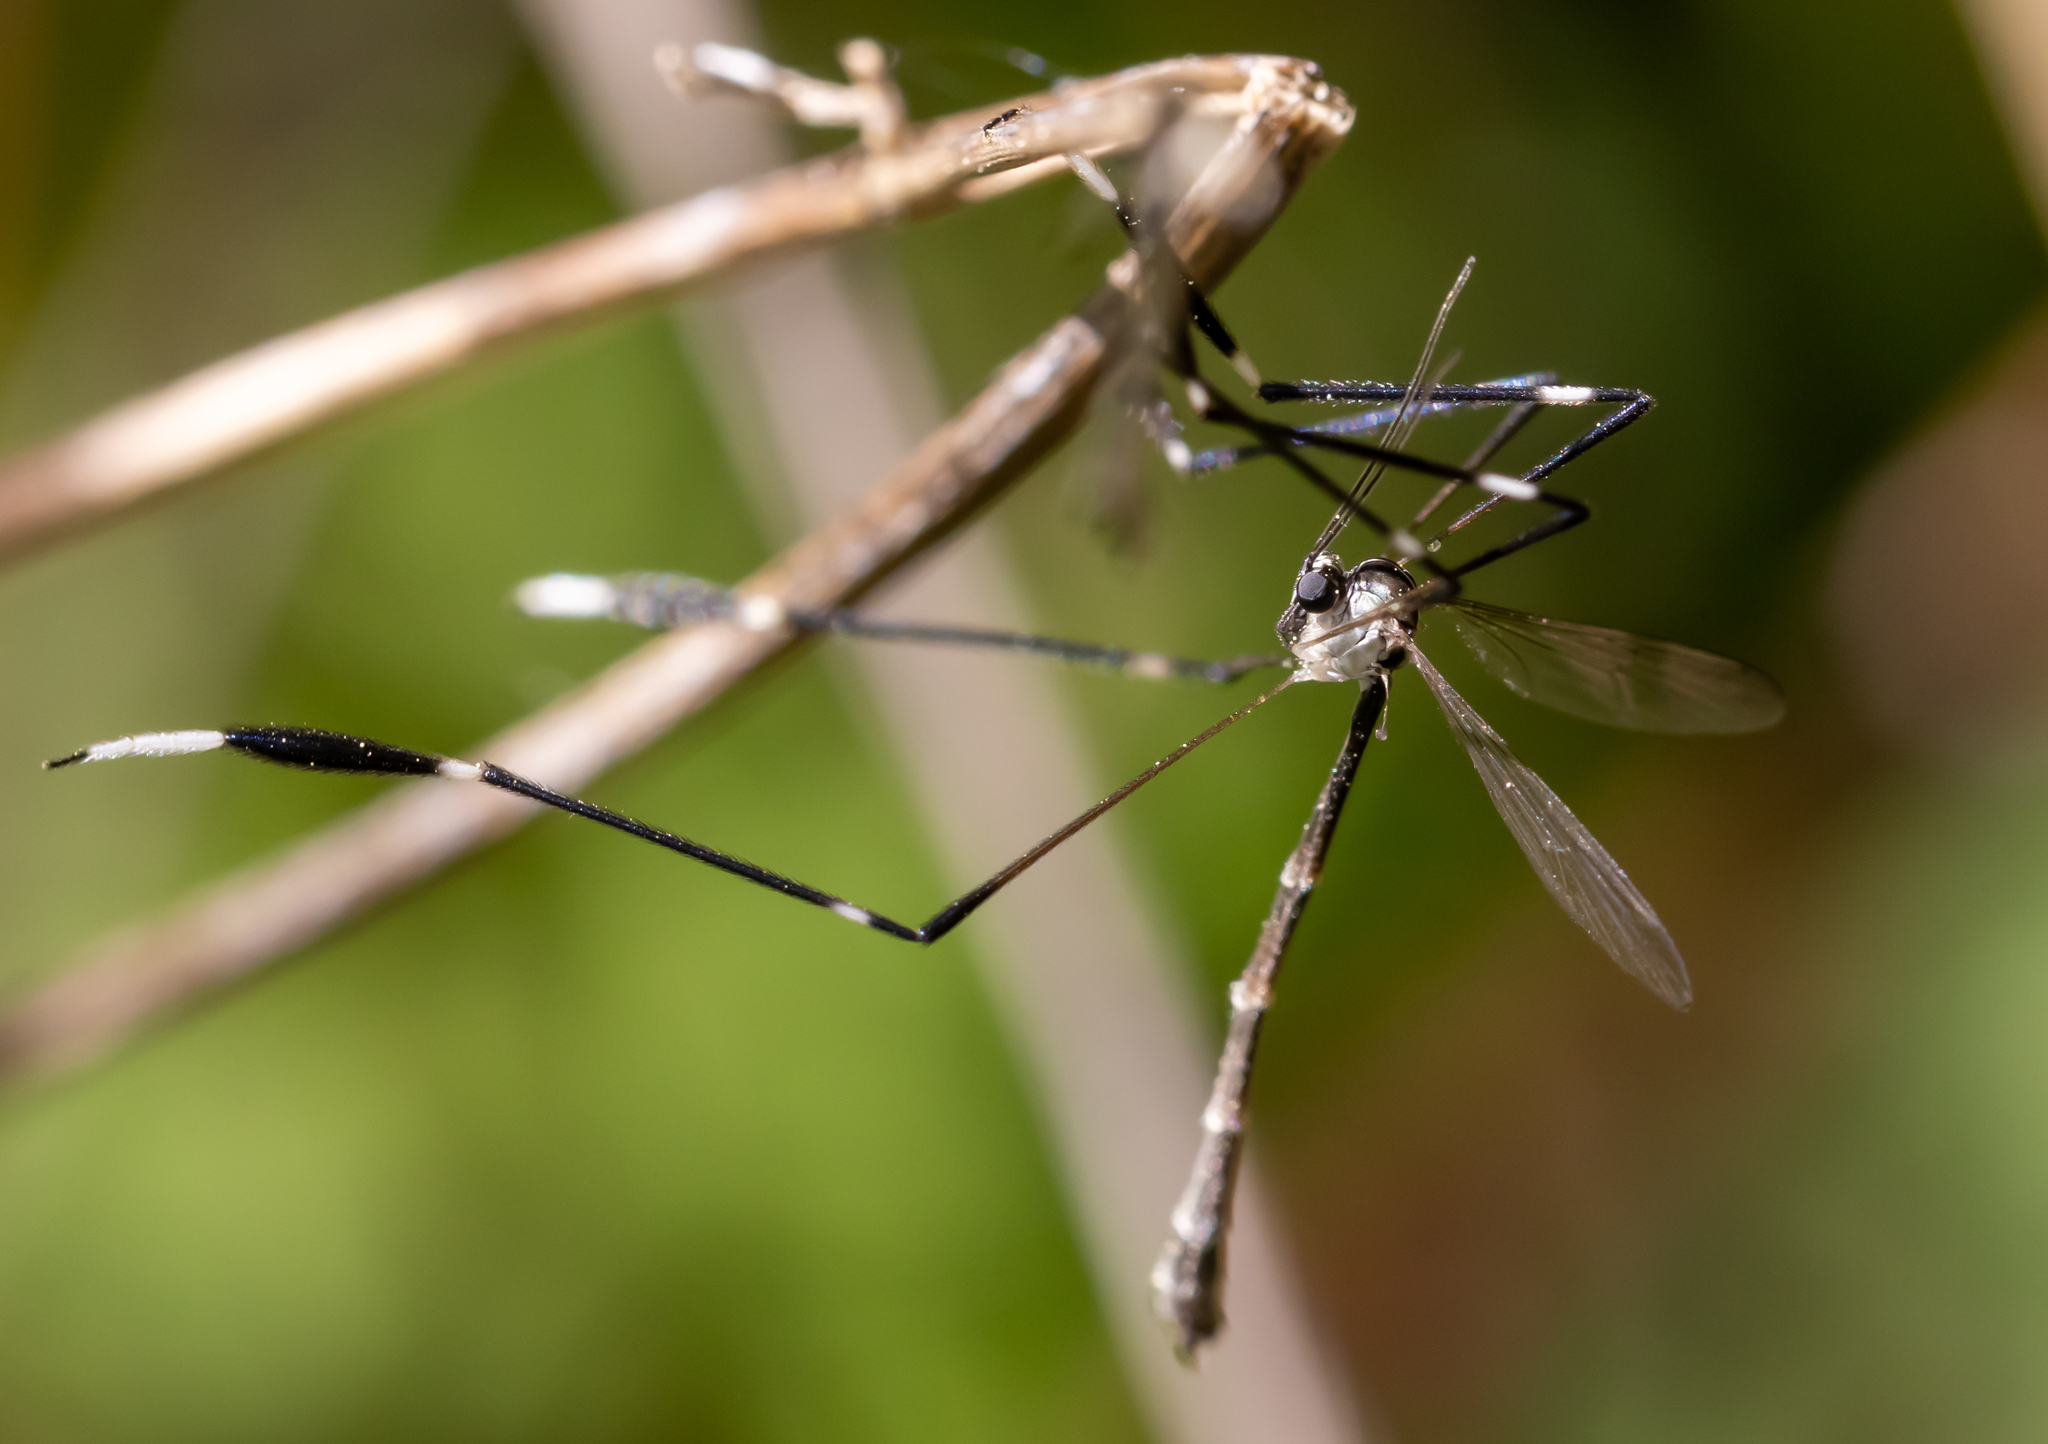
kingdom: Animalia
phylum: Arthropoda
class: Insecta
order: Diptera
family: Ptychopteridae
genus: Bittacomorpha
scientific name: Bittacomorpha clavipes
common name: Eastern phantom crane fly
